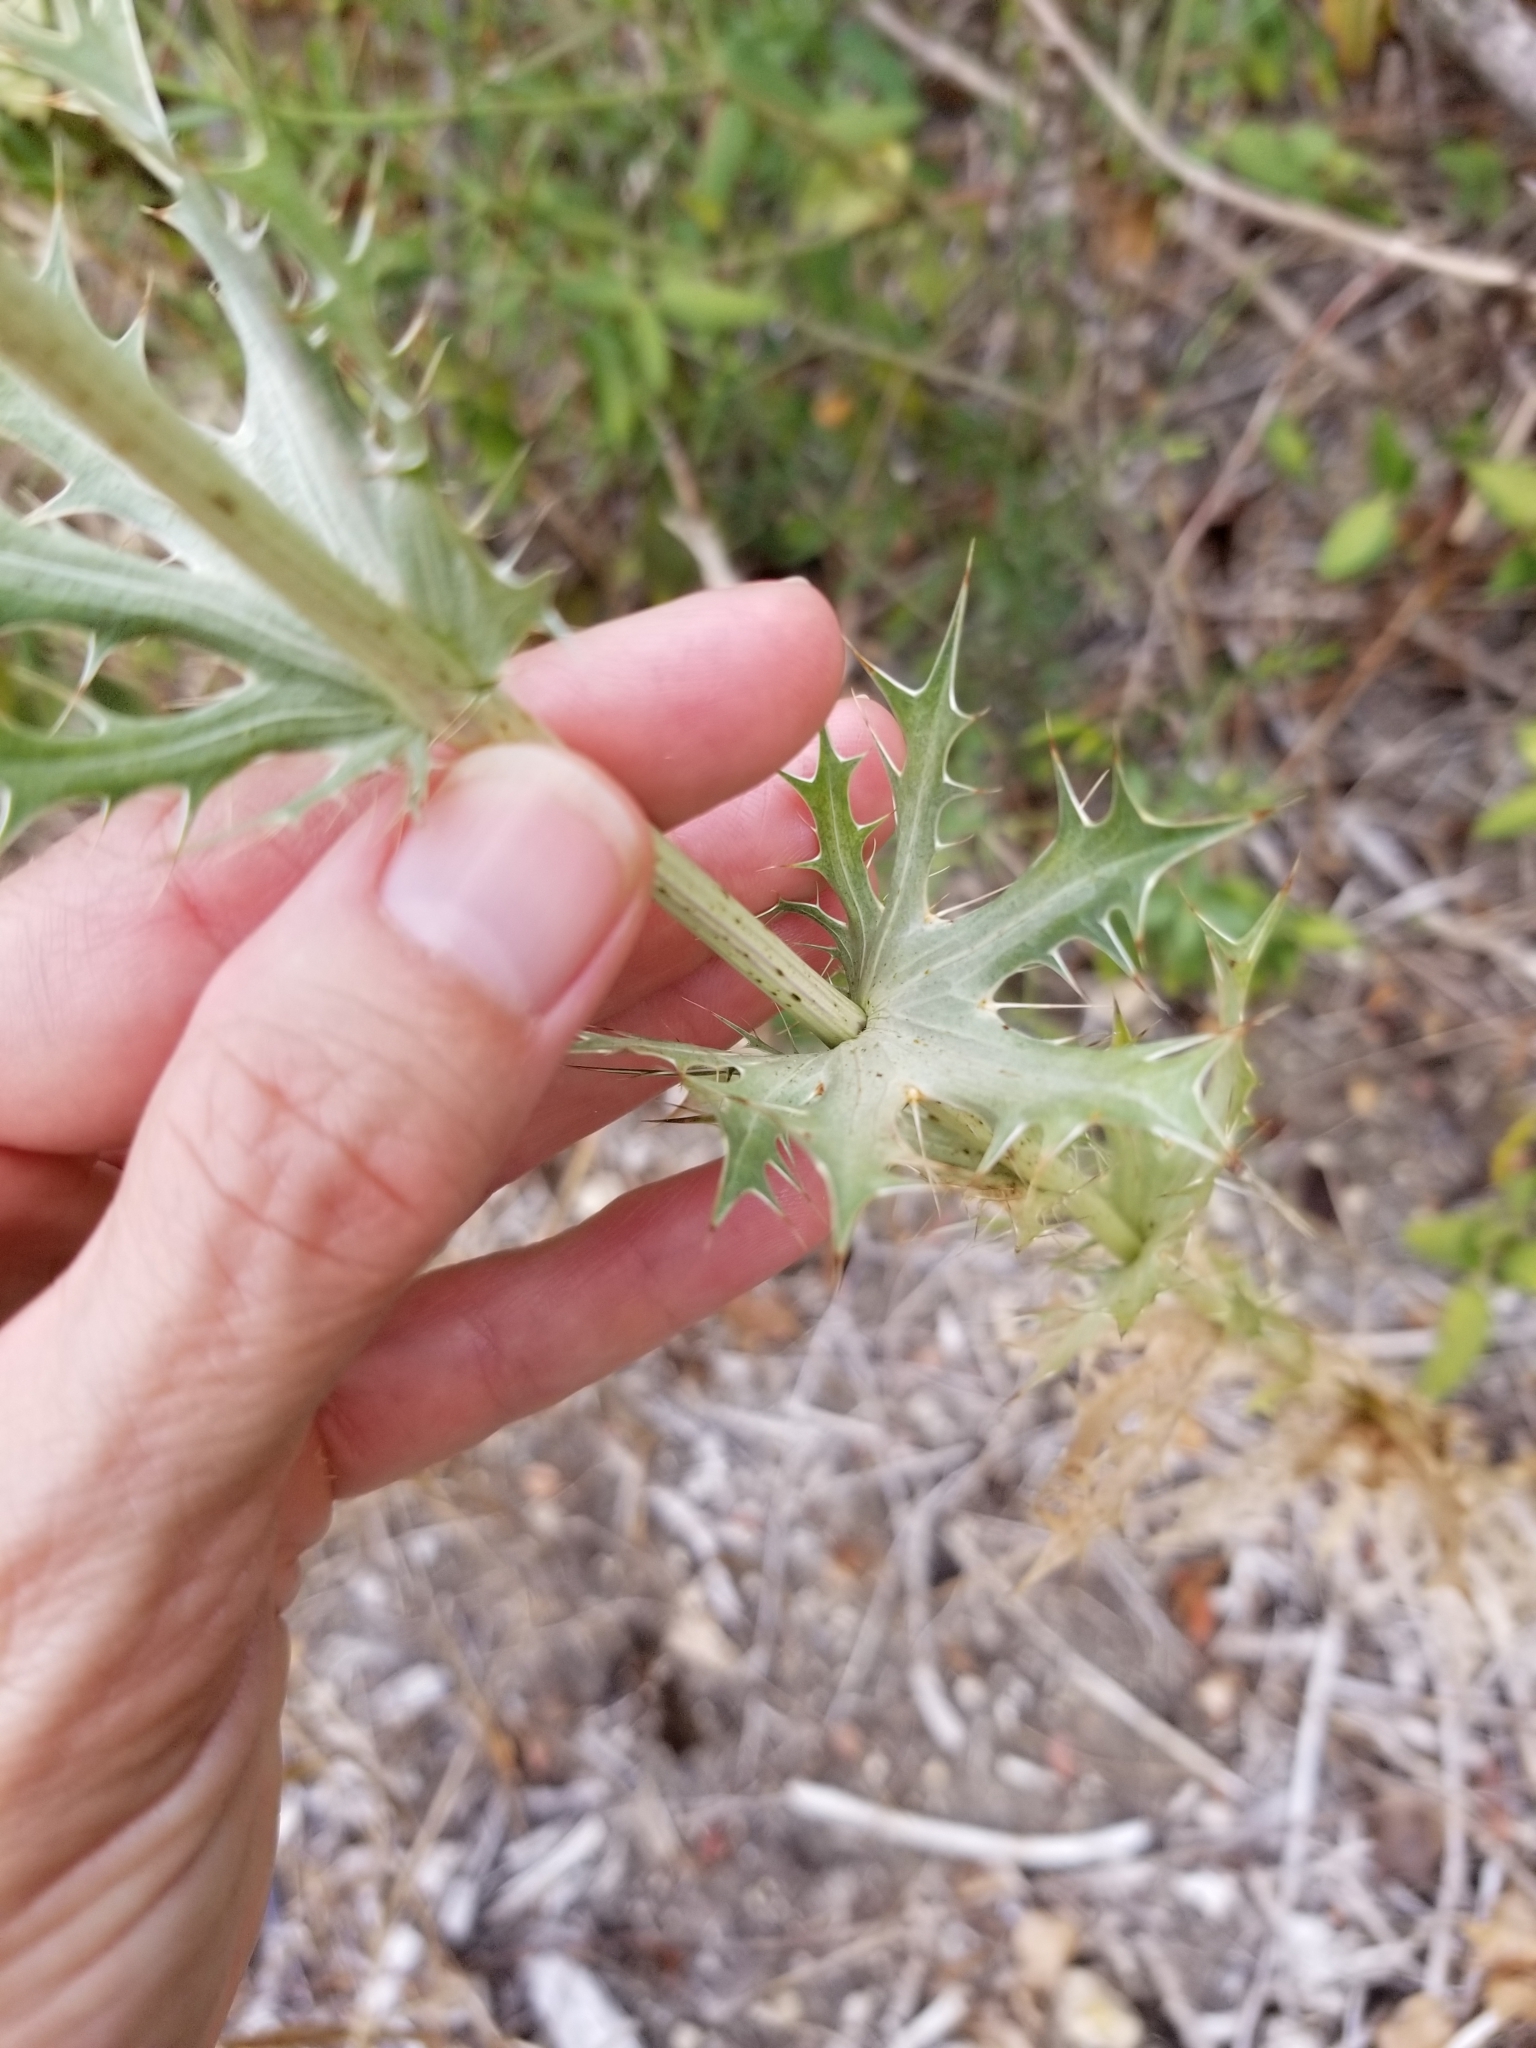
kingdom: Plantae
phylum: Tracheophyta
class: Magnoliopsida
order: Apiales
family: Apiaceae
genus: Eryngium
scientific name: Eryngium leavenworthii
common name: Leavenworth's eryngo
